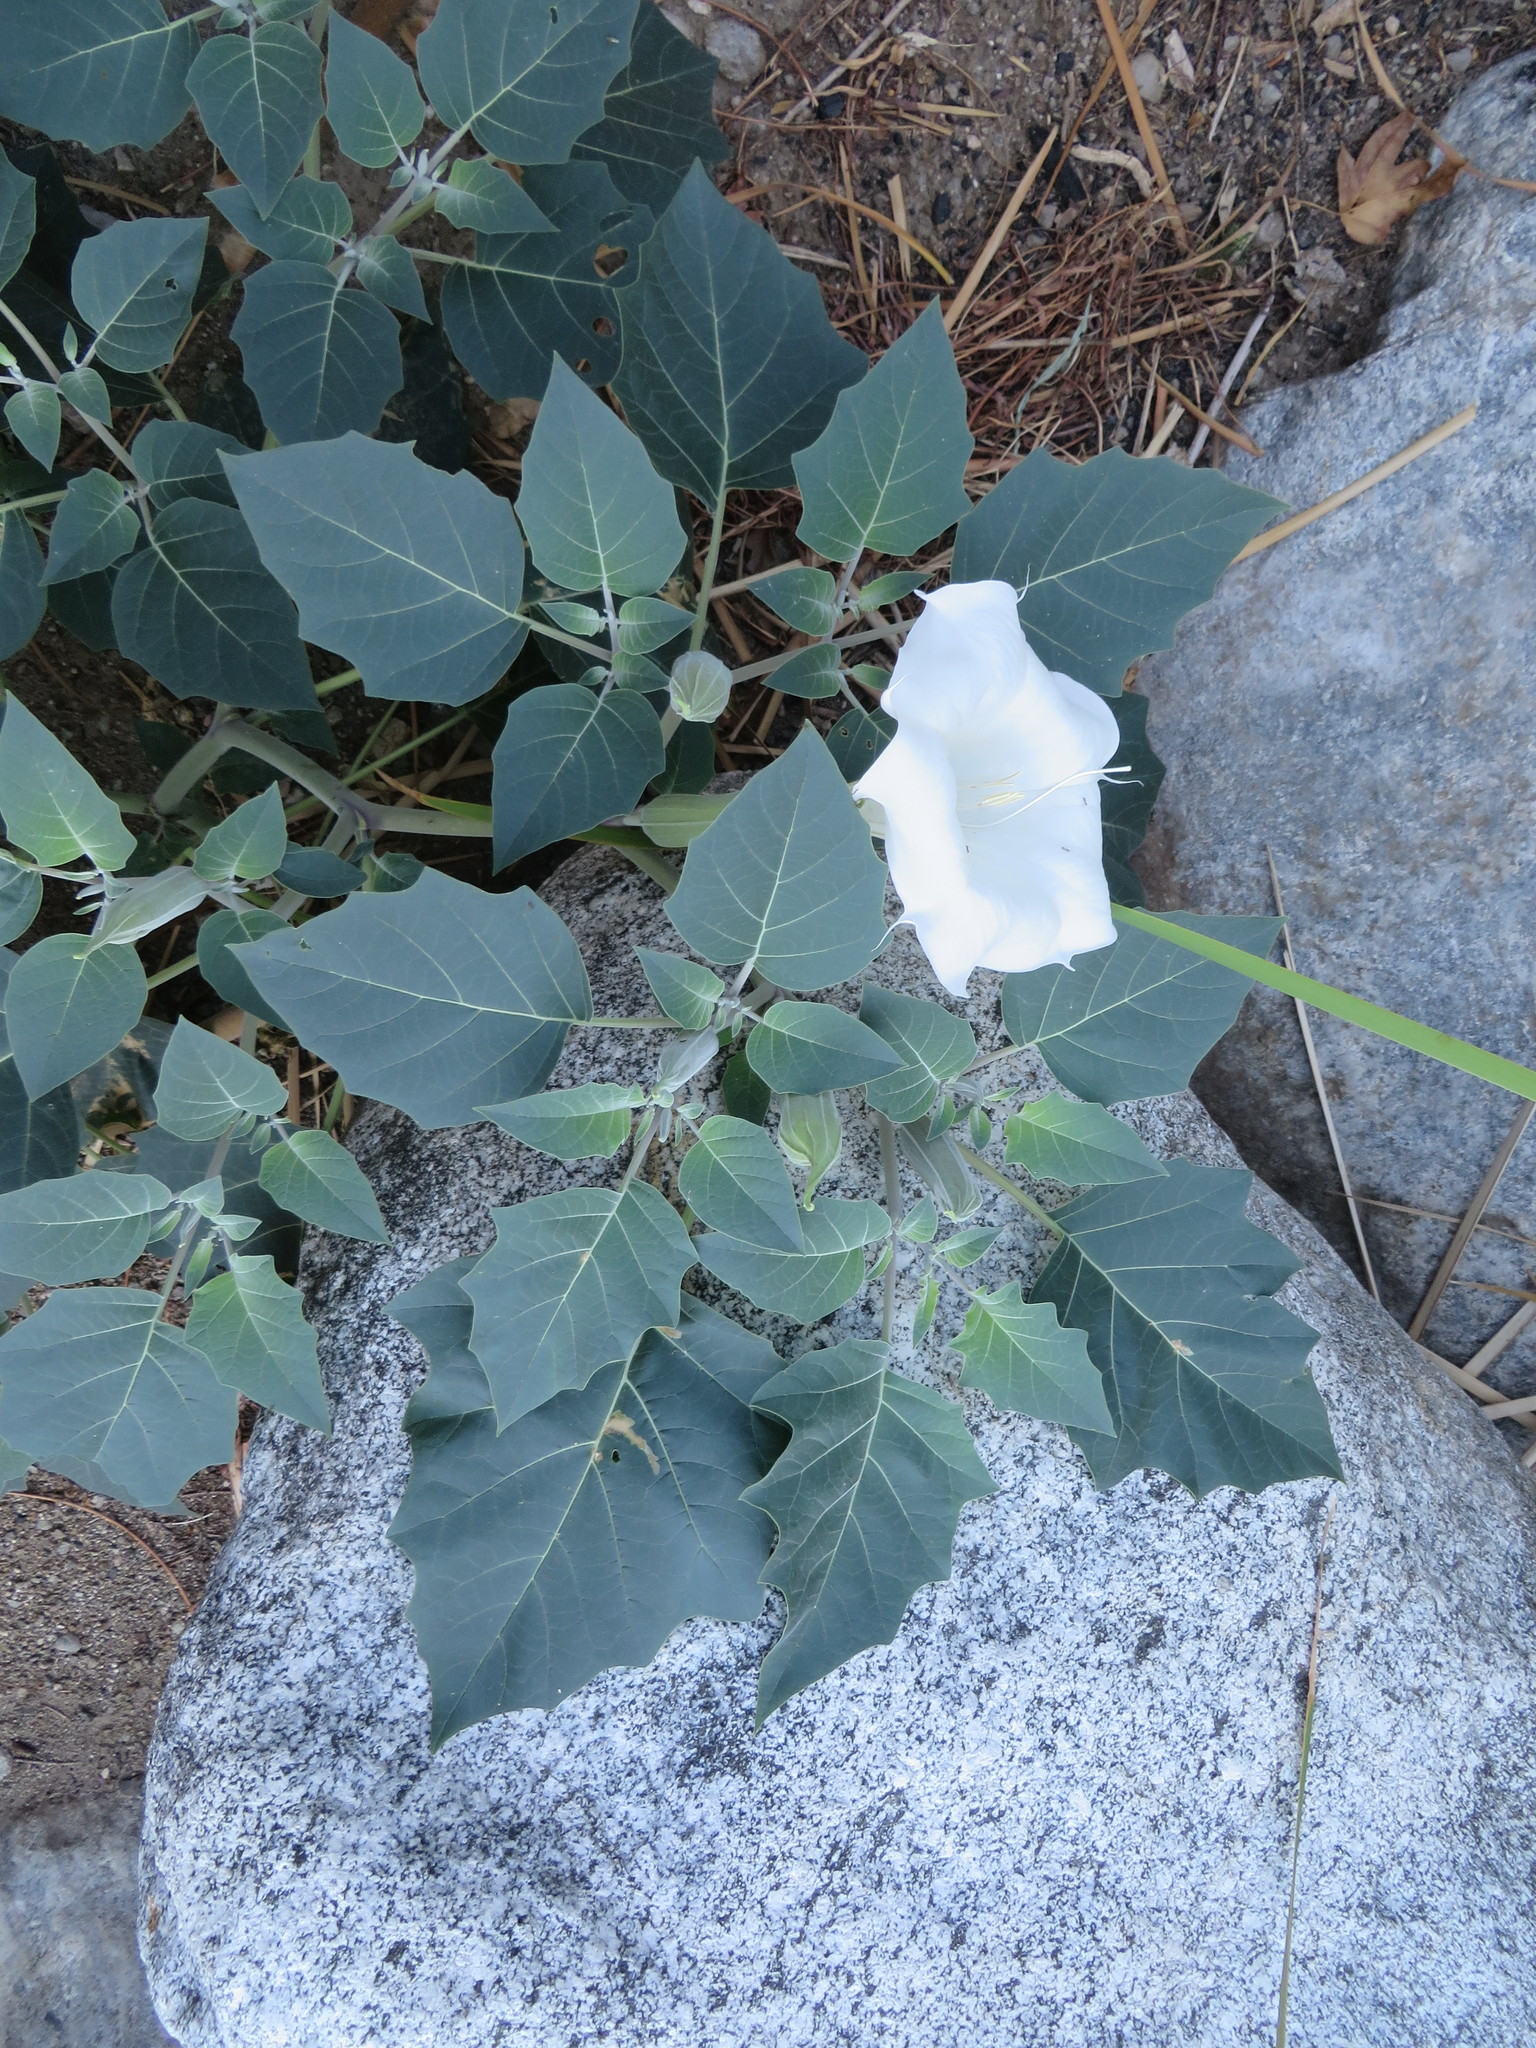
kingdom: Plantae
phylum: Tracheophyta
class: Magnoliopsida
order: Solanales
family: Solanaceae
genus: Datura
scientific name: Datura wrightii
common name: Sacred thorn-apple
